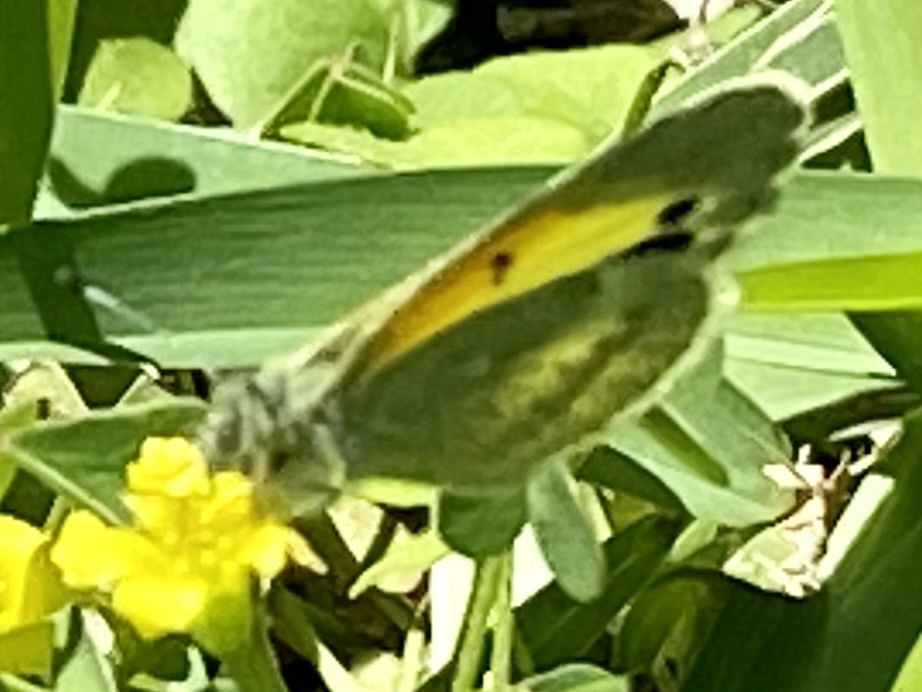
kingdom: Animalia
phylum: Arthropoda
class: Insecta
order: Lepidoptera
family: Pieridae
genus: Nathalis
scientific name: Nathalis iole
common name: Dainty sulphur
